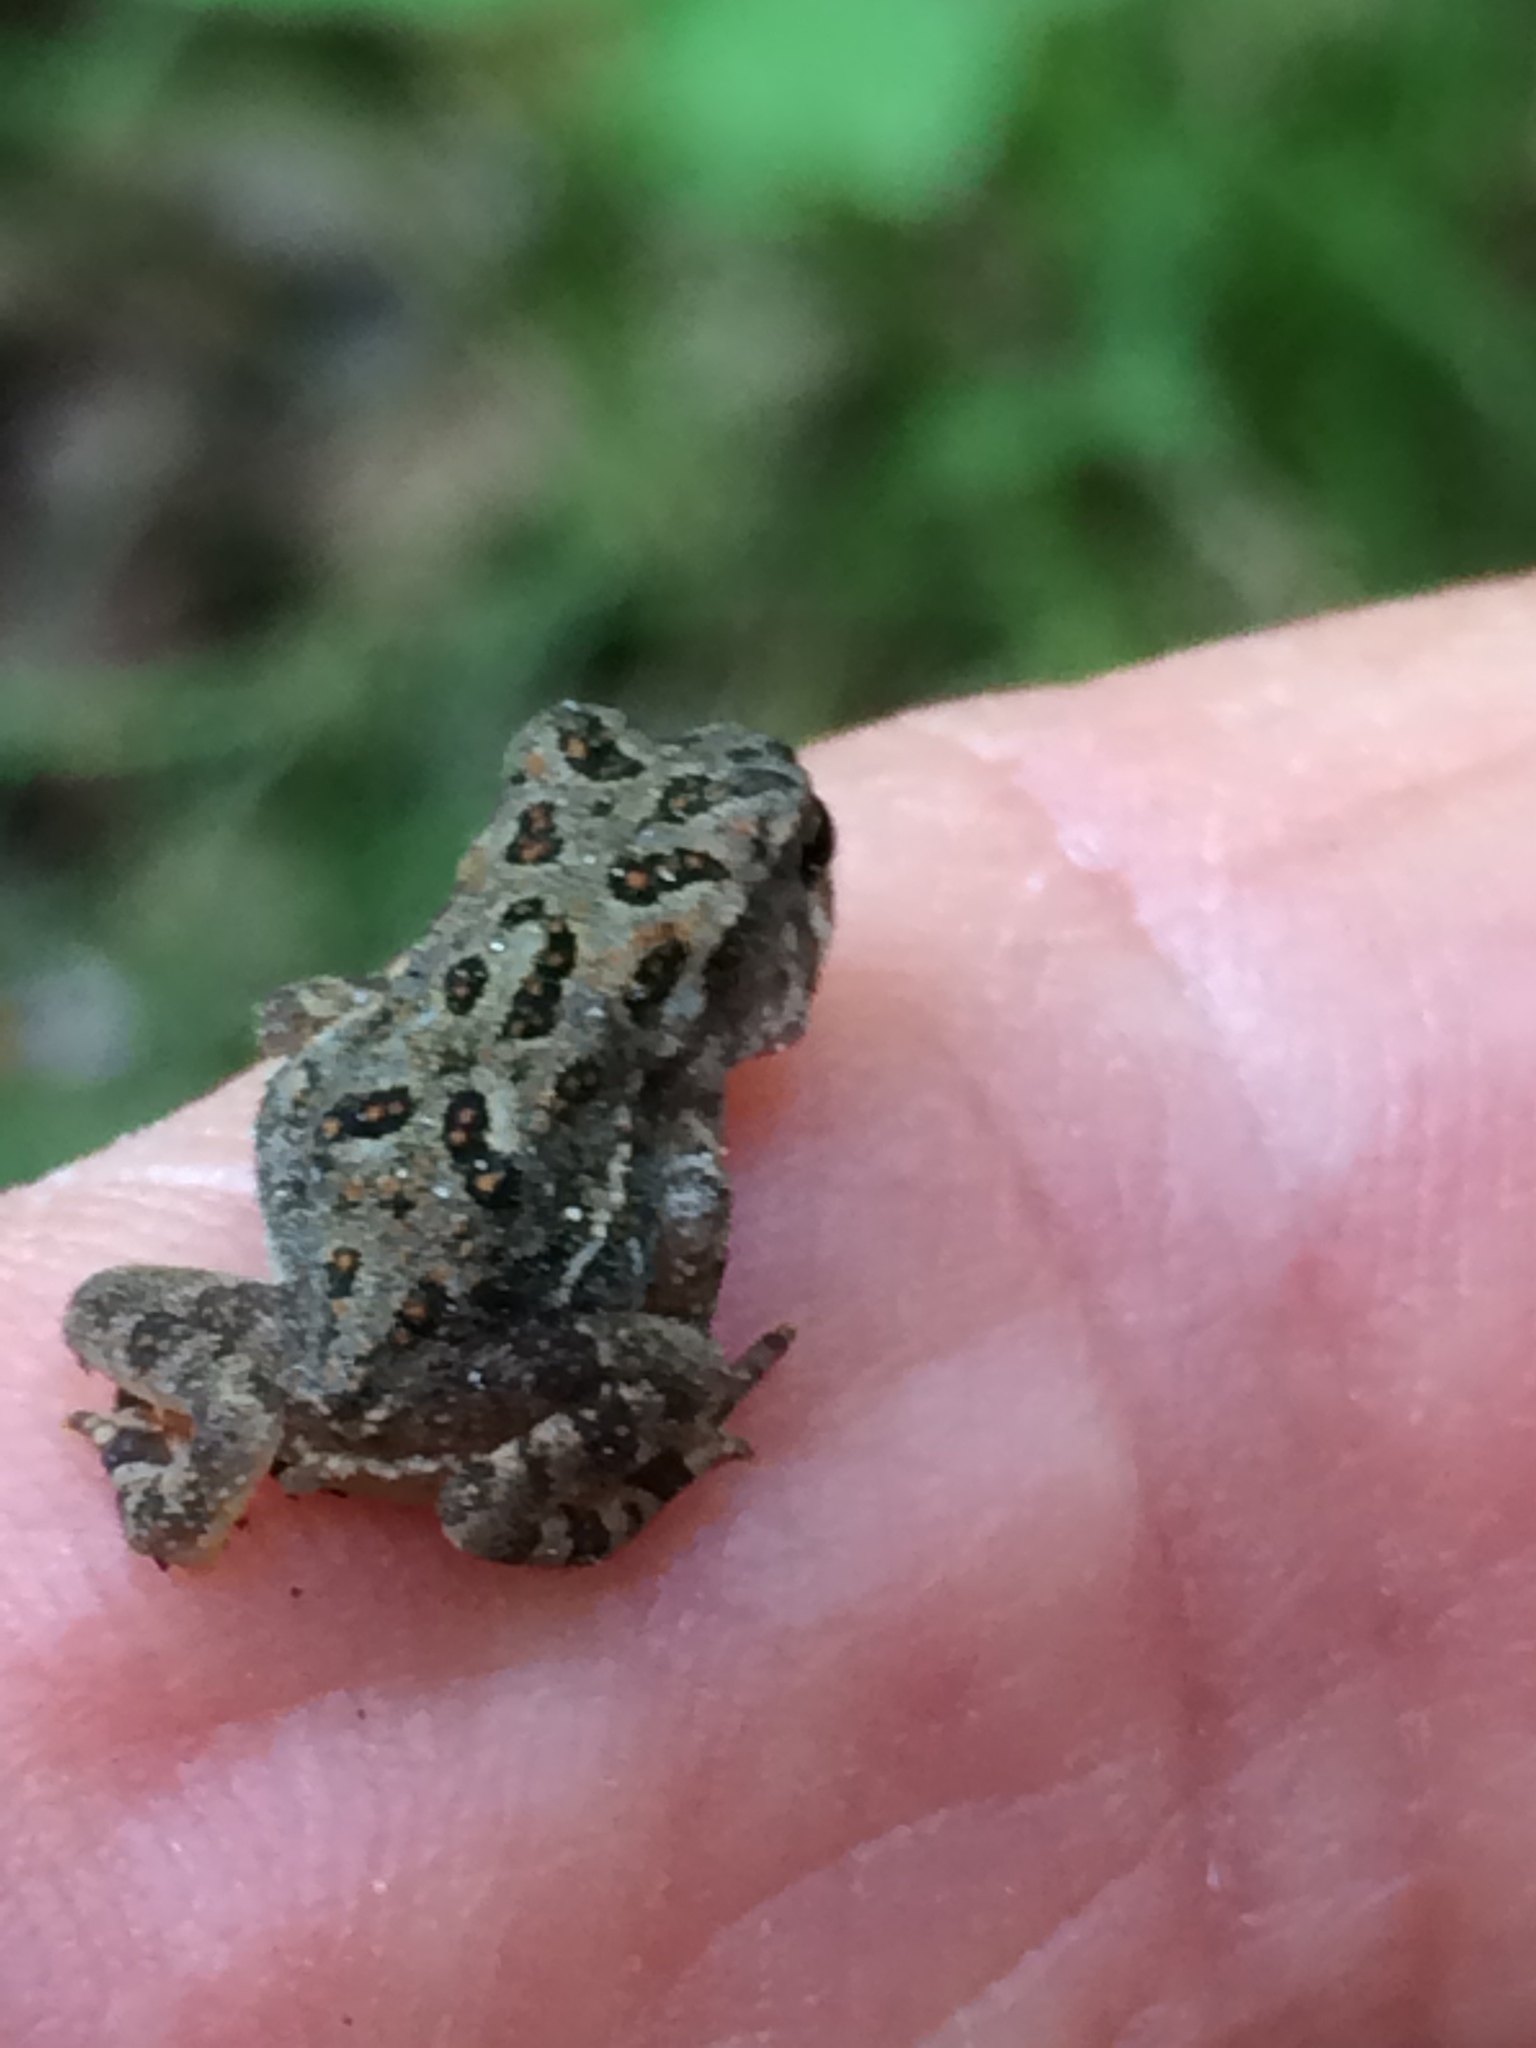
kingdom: Animalia
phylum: Chordata
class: Amphibia
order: Anura
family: Bufonidae
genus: Anaxyrus
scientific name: Anaxyrus americanus
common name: American toad
